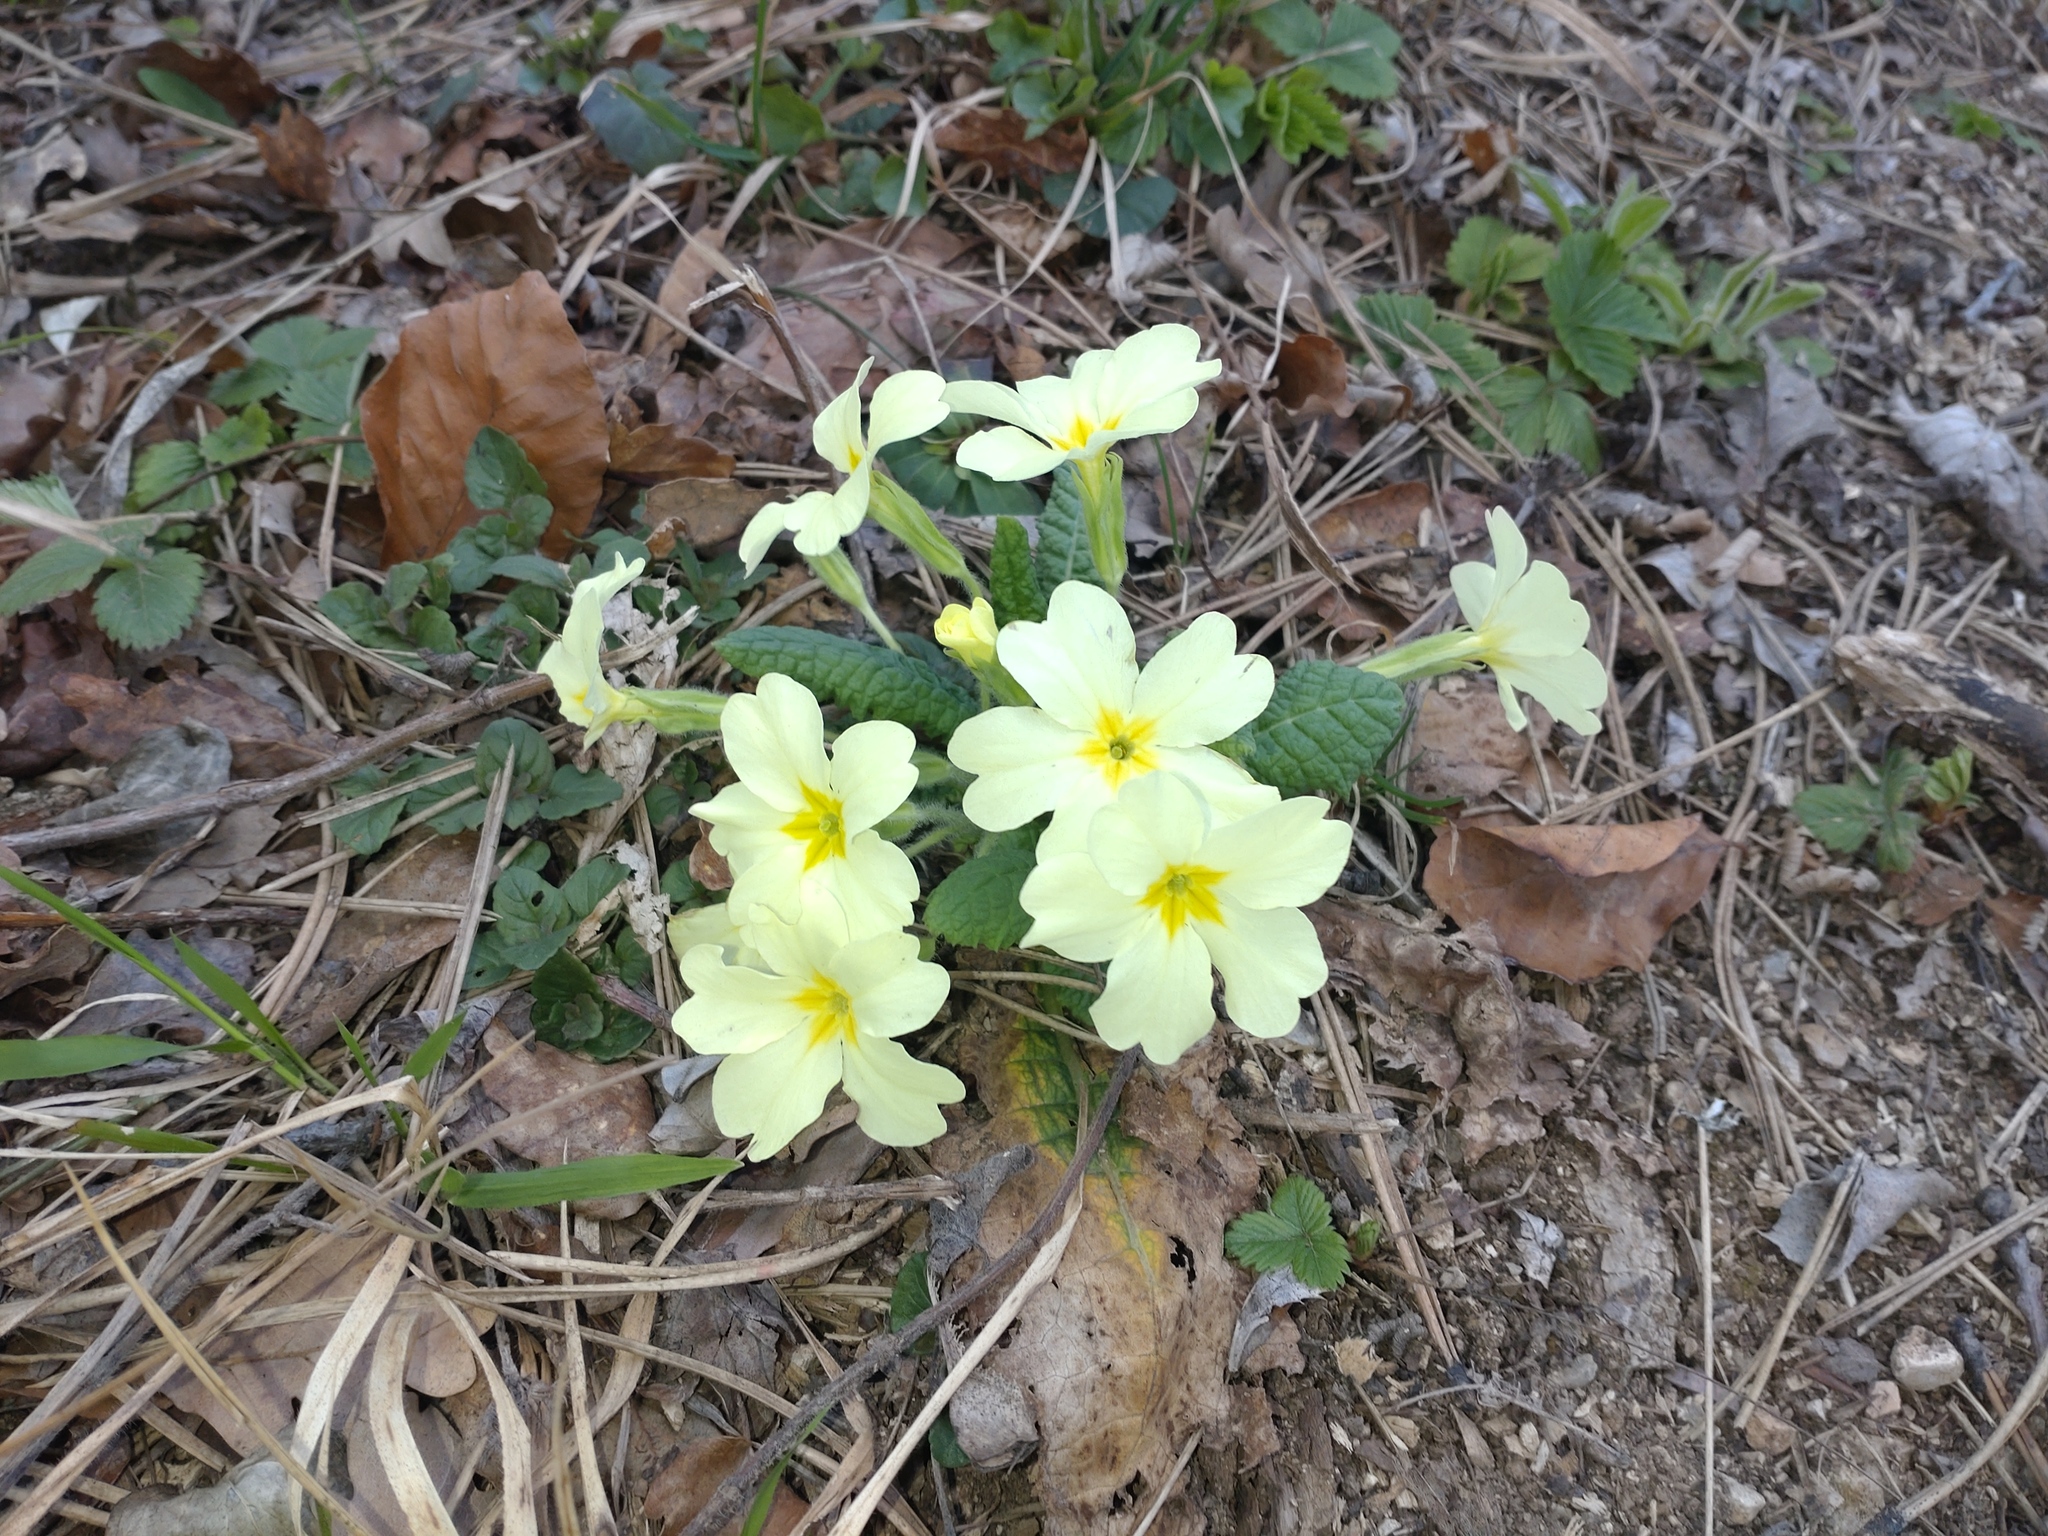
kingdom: Plantae
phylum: Tracheophyta
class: Magnoliopsida
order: Ericales
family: Primulaceae
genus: Primula
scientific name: Primula vulgaris
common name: Primrose
